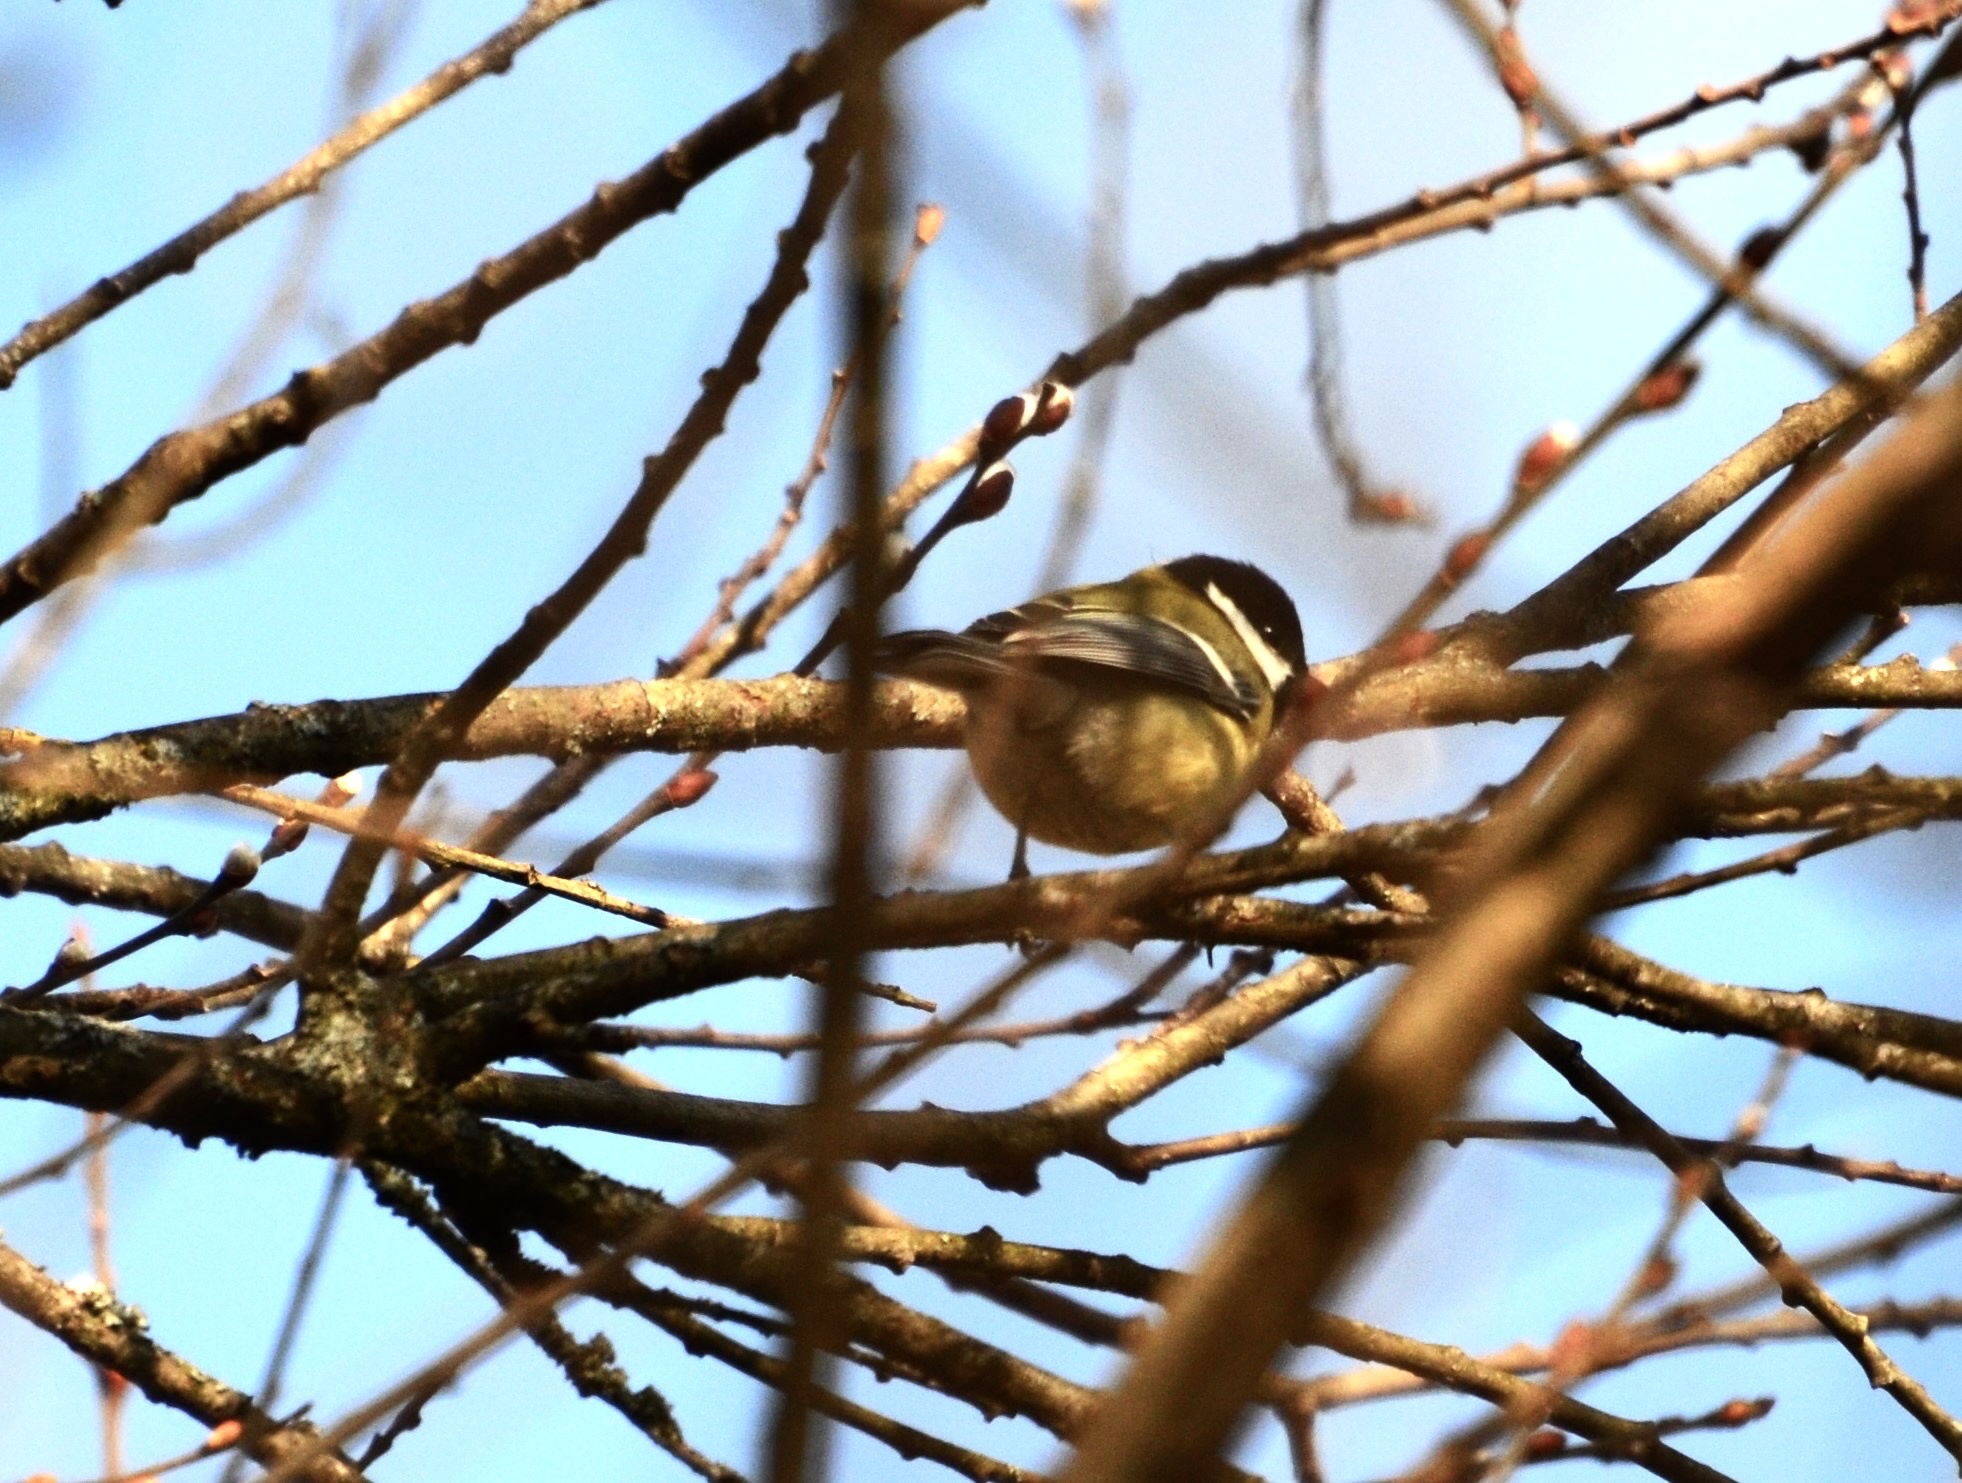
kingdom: Animalia
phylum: Chordata
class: Aves
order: Passeriformes
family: Paridae
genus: Parus
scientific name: Parus major
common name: Great tit
